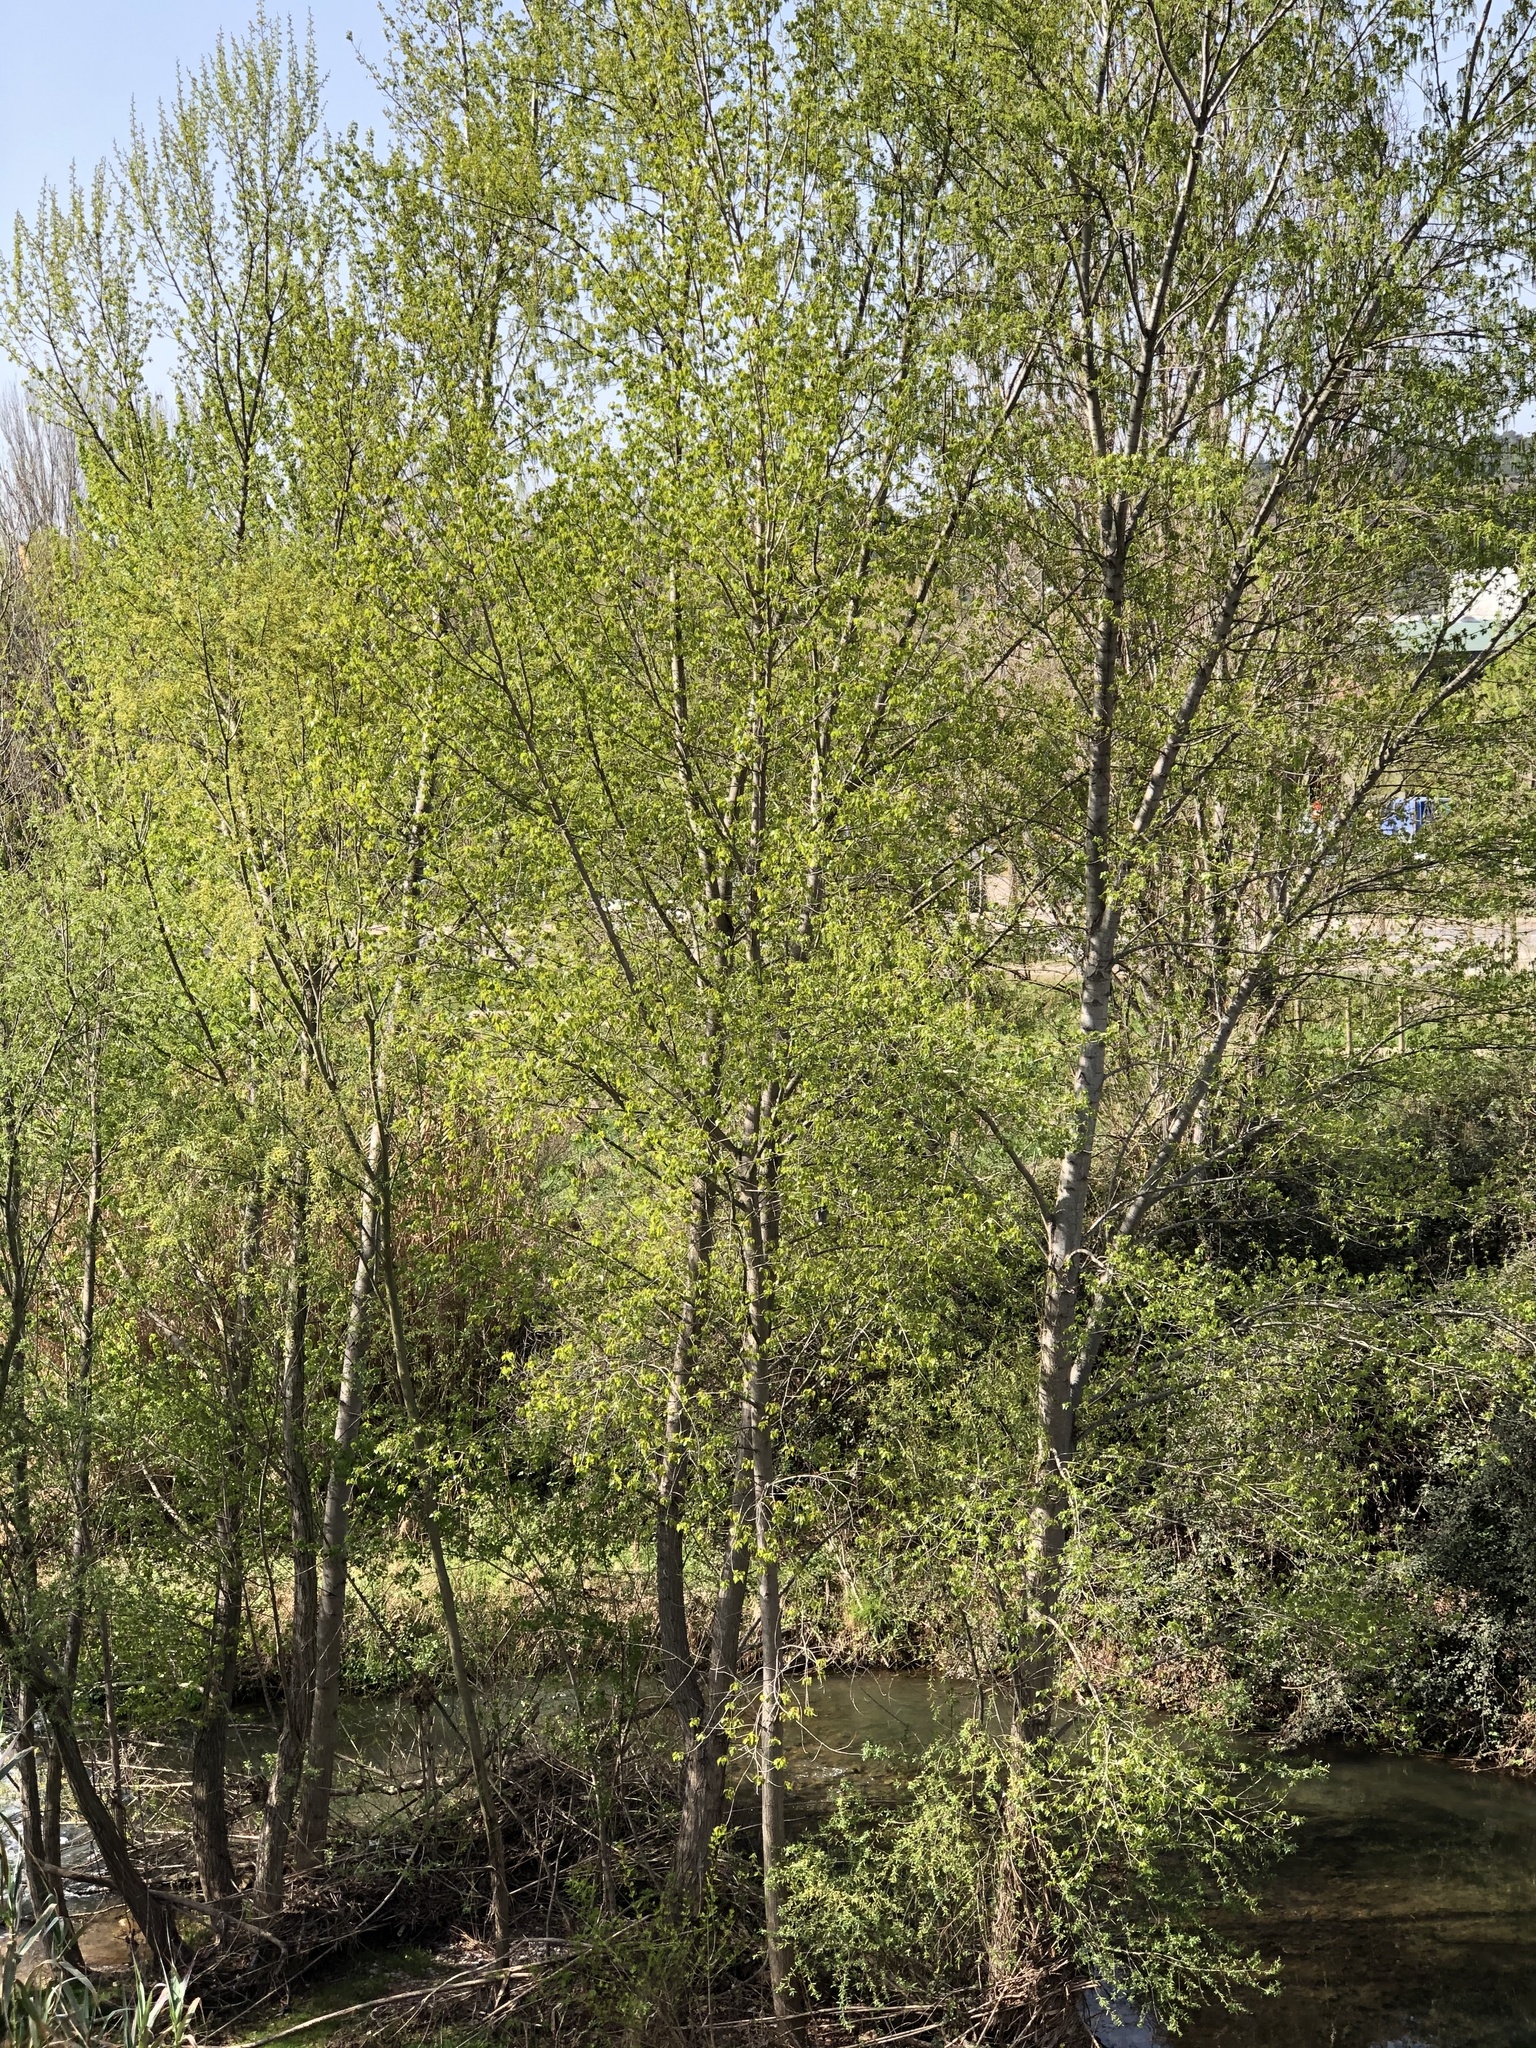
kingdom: Plantae
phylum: Tracheophyta
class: Magnoliopsida
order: Malpighiales
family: Salicaceae
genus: Populus
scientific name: Populus nigra
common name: Black poplar
